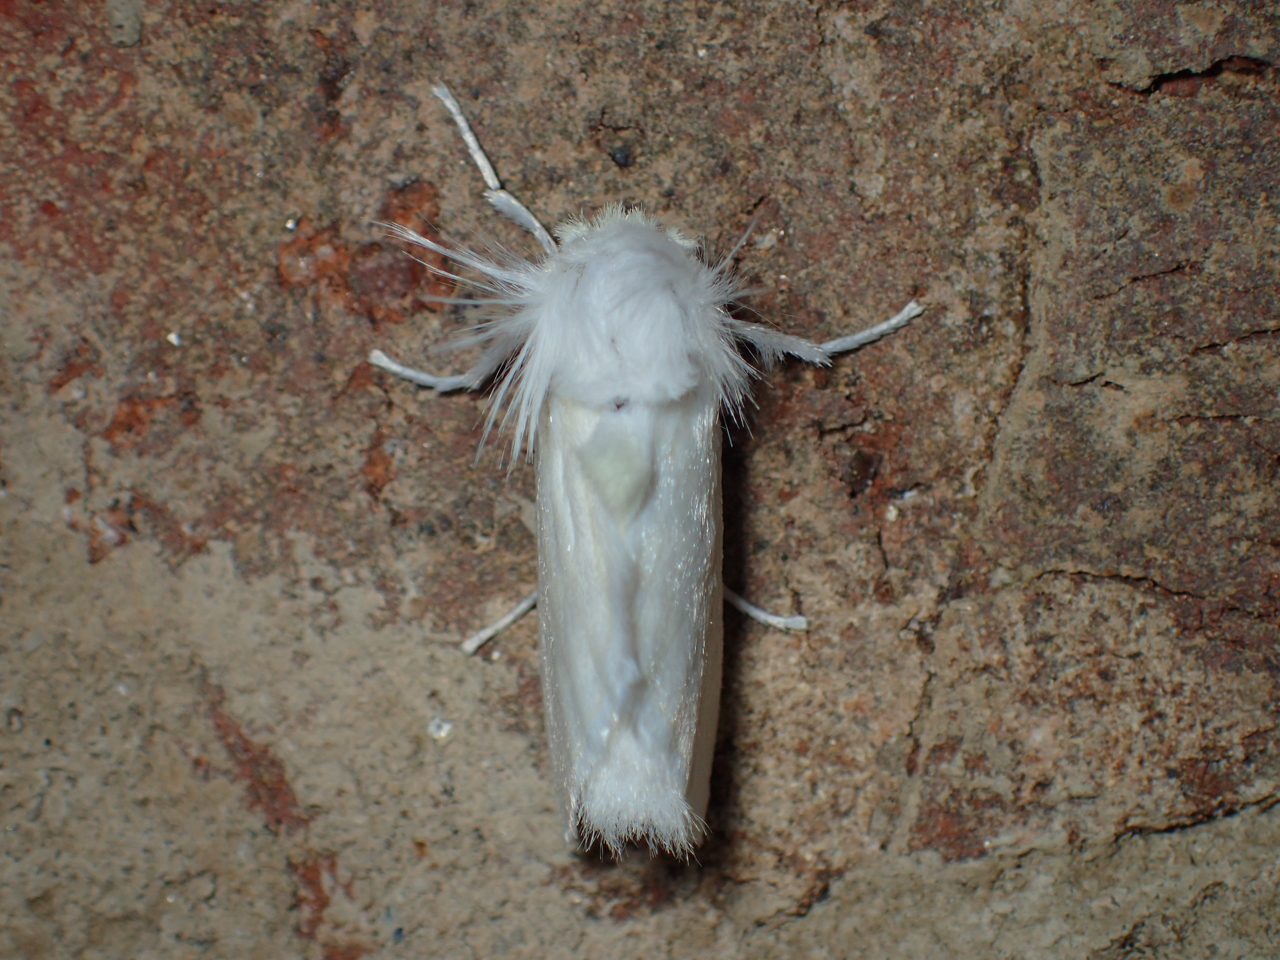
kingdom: Animalia
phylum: Arthropoda
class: Insecta
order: Lepidoptera
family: Megalopygidae
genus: Norape
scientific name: Norape cretata
